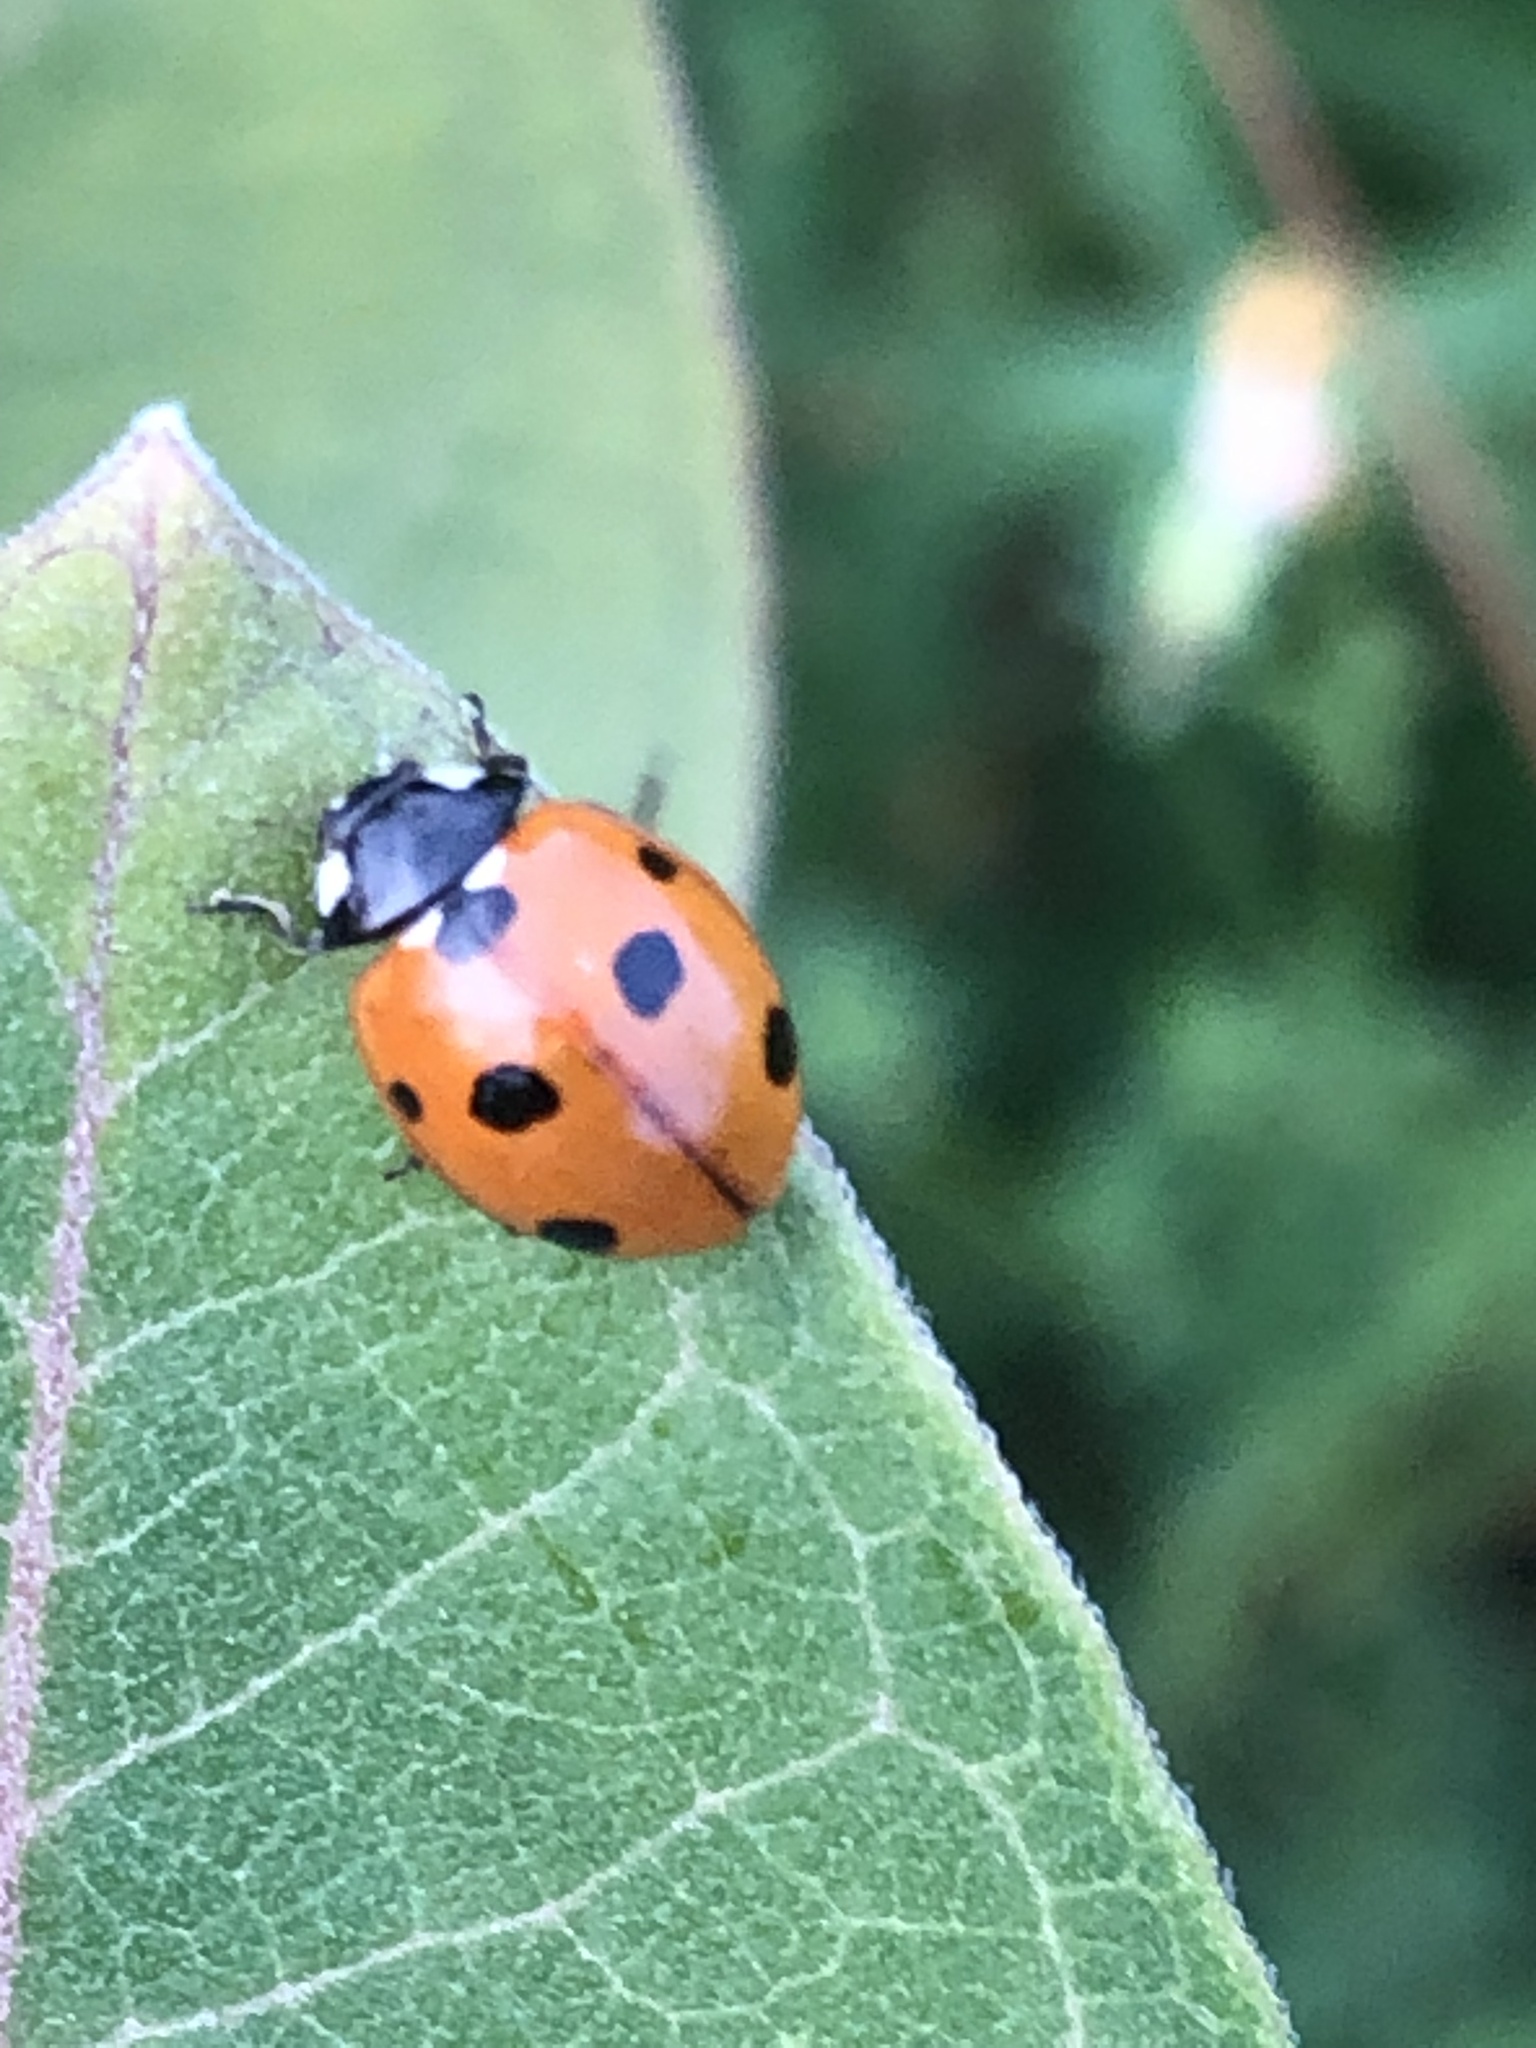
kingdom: Animalia
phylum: Arthropoda
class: Insecta
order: Coleoptera
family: Coccinellidae
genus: Coccinella
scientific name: Coccinella septempunctata
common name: Sevenspotted lady beetle
